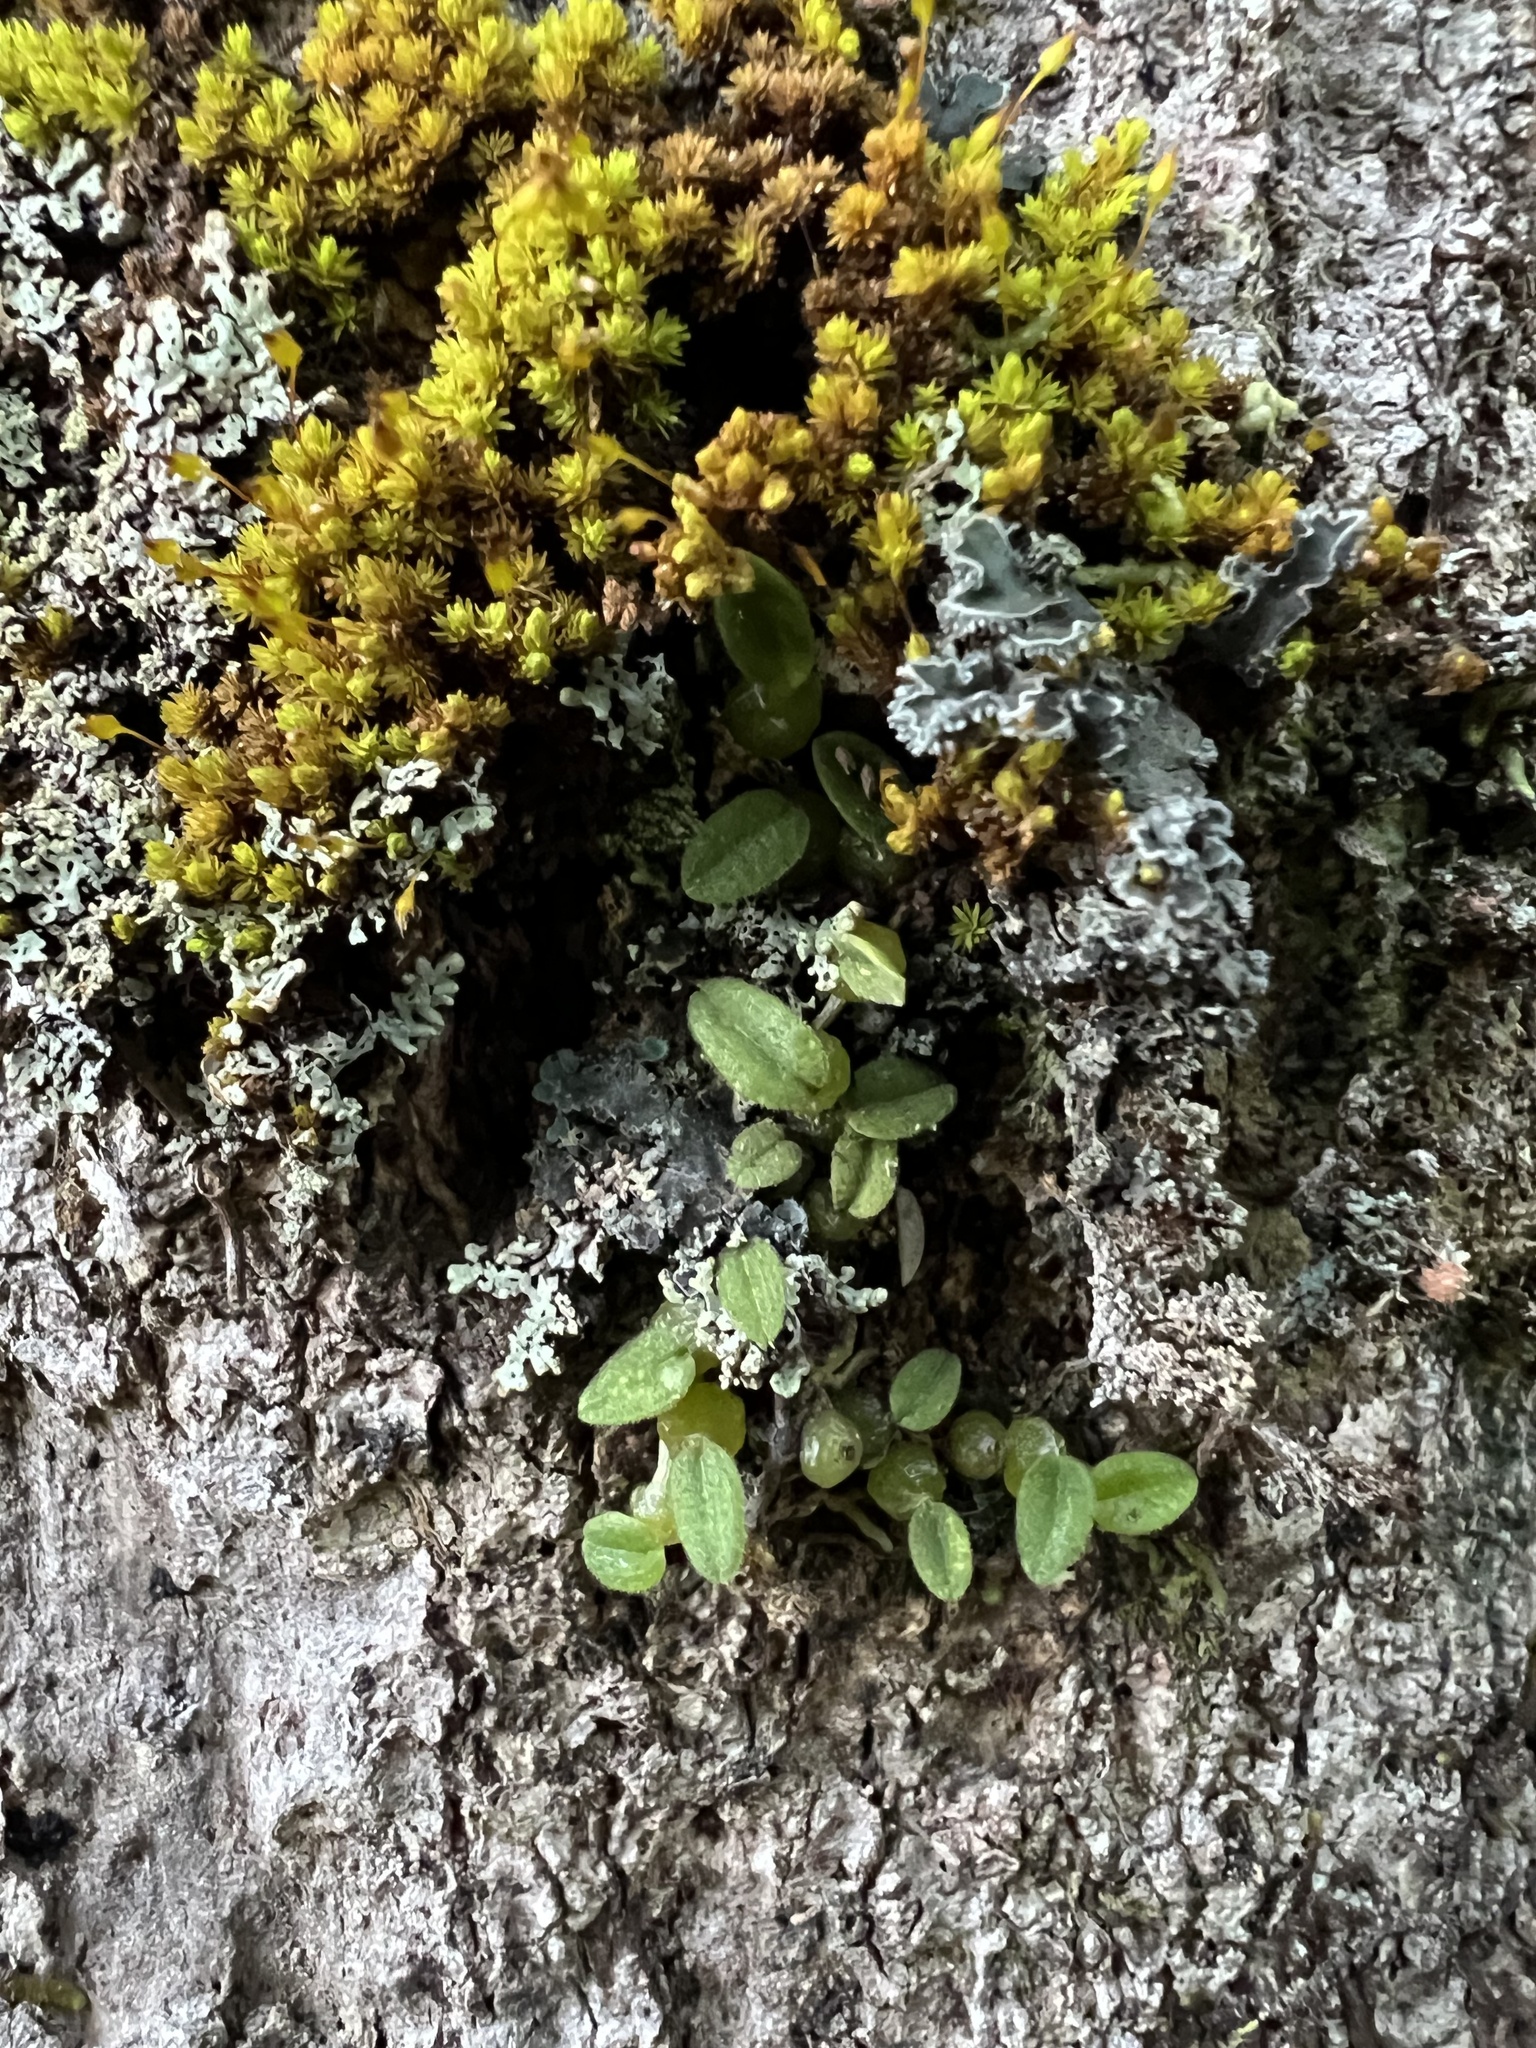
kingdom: Plantae
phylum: Tracheophyta
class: Liliopsida
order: Asparagales
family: Orchidaceae
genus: Bulbophyllum
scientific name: Bulbophyllum pygmaeum
